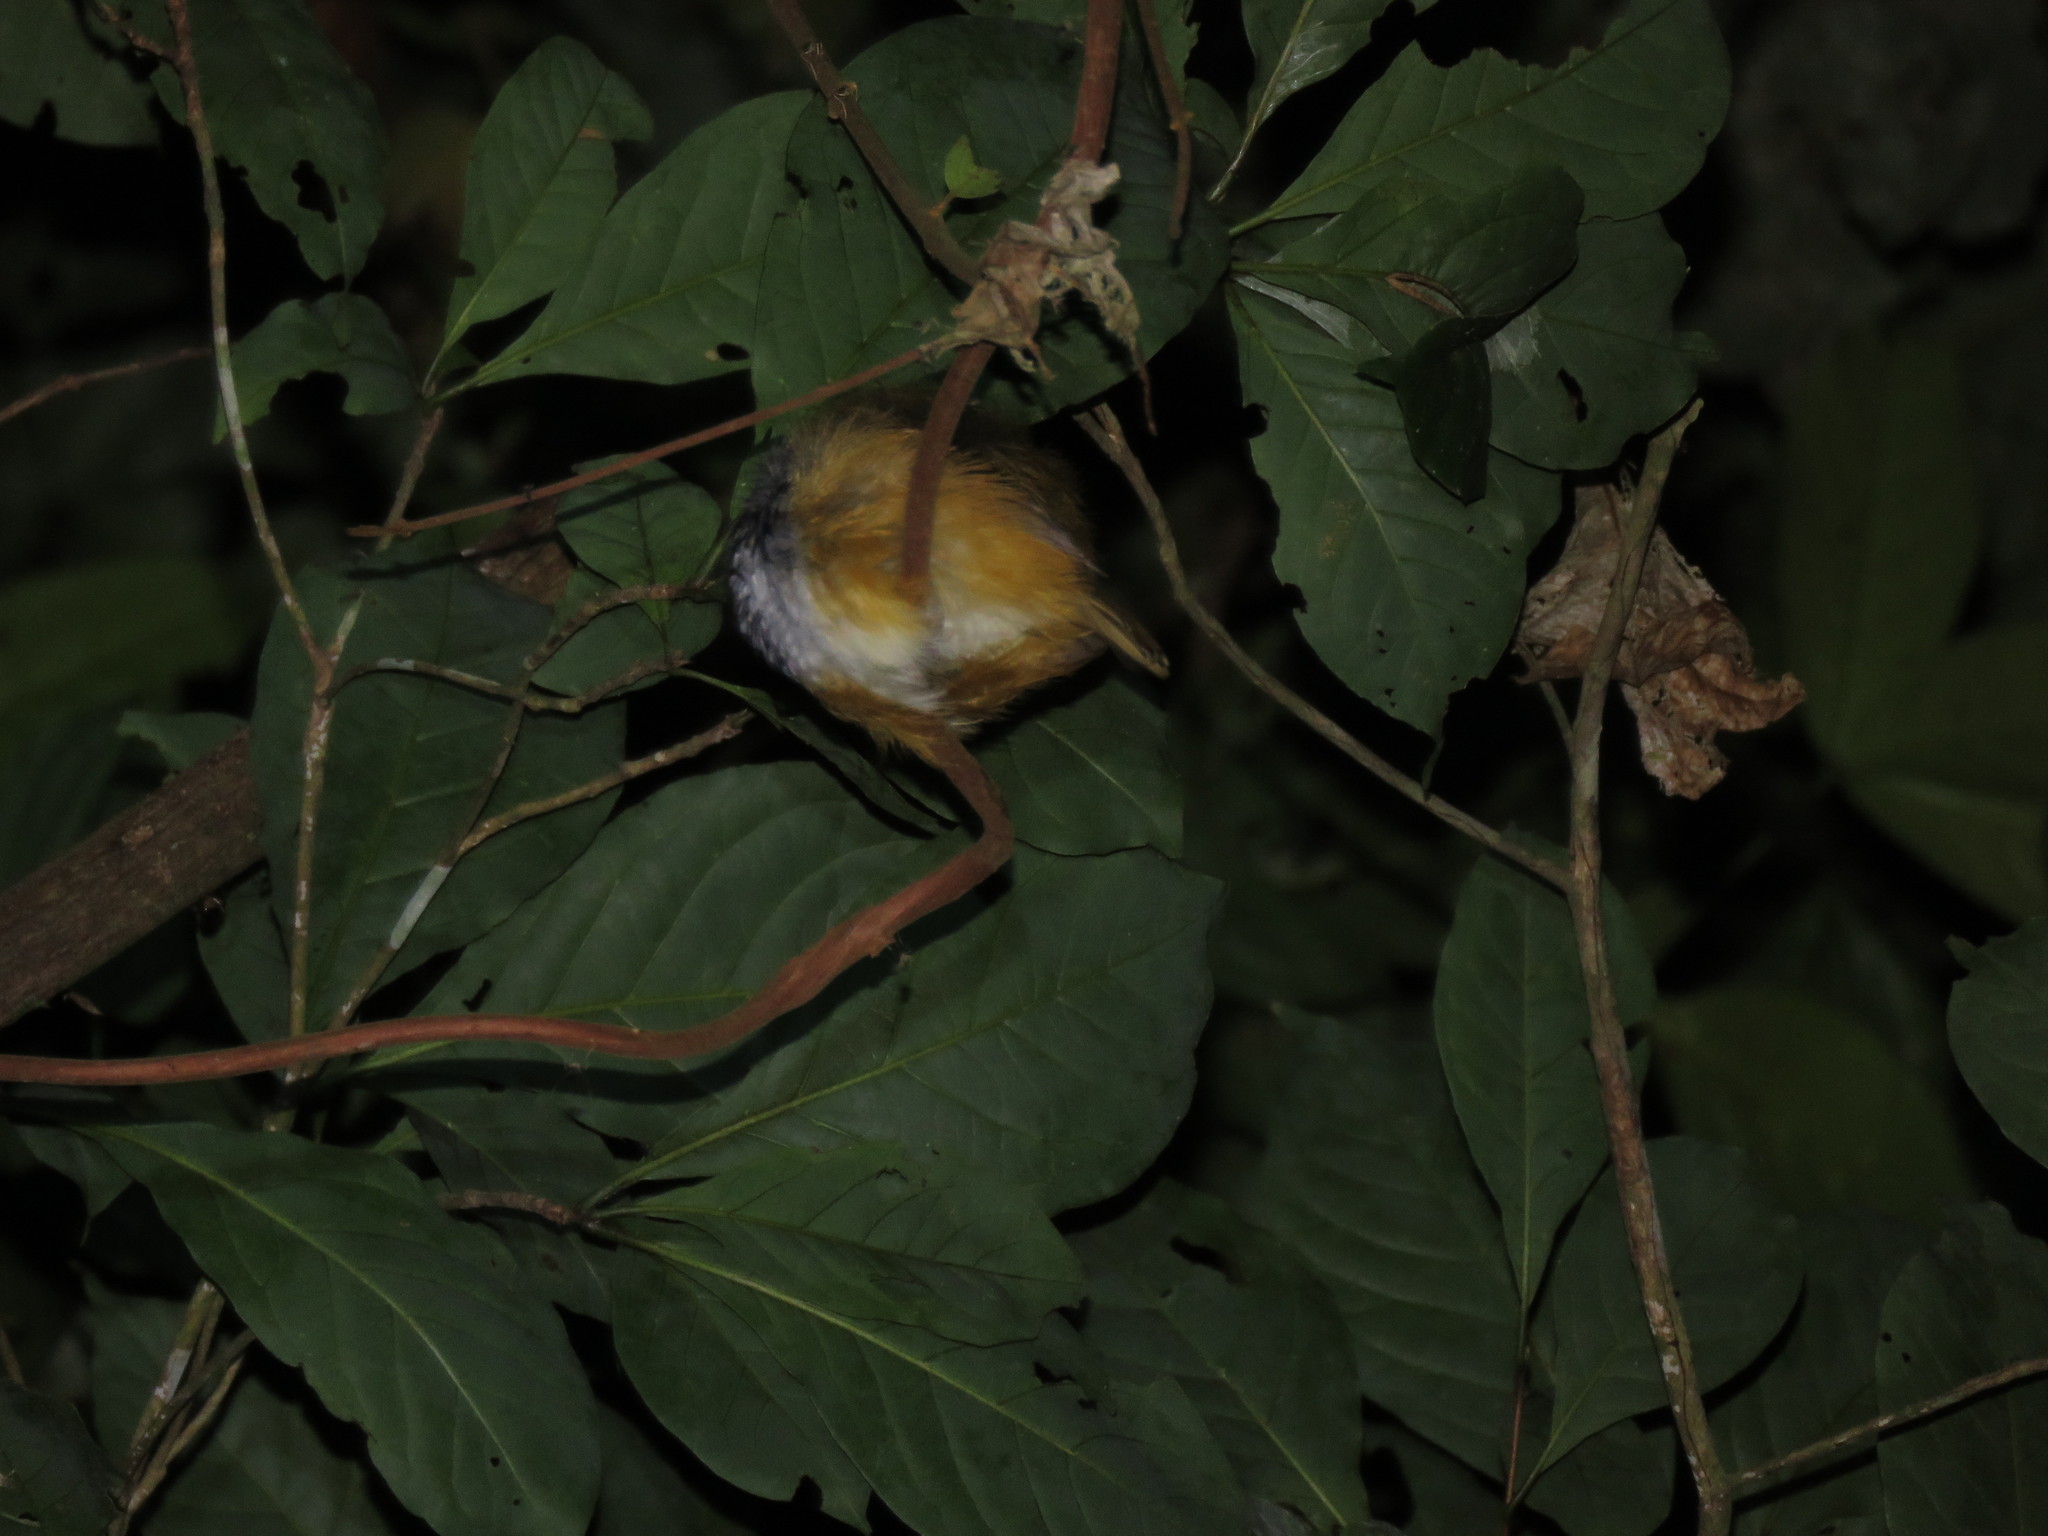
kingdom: Animalia
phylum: Chordata
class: Aves
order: Passeriformes
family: Thamnophilidae
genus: Hypocnemis
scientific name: Hypocnemis peruviana
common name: Peruvian warbling-antbird
